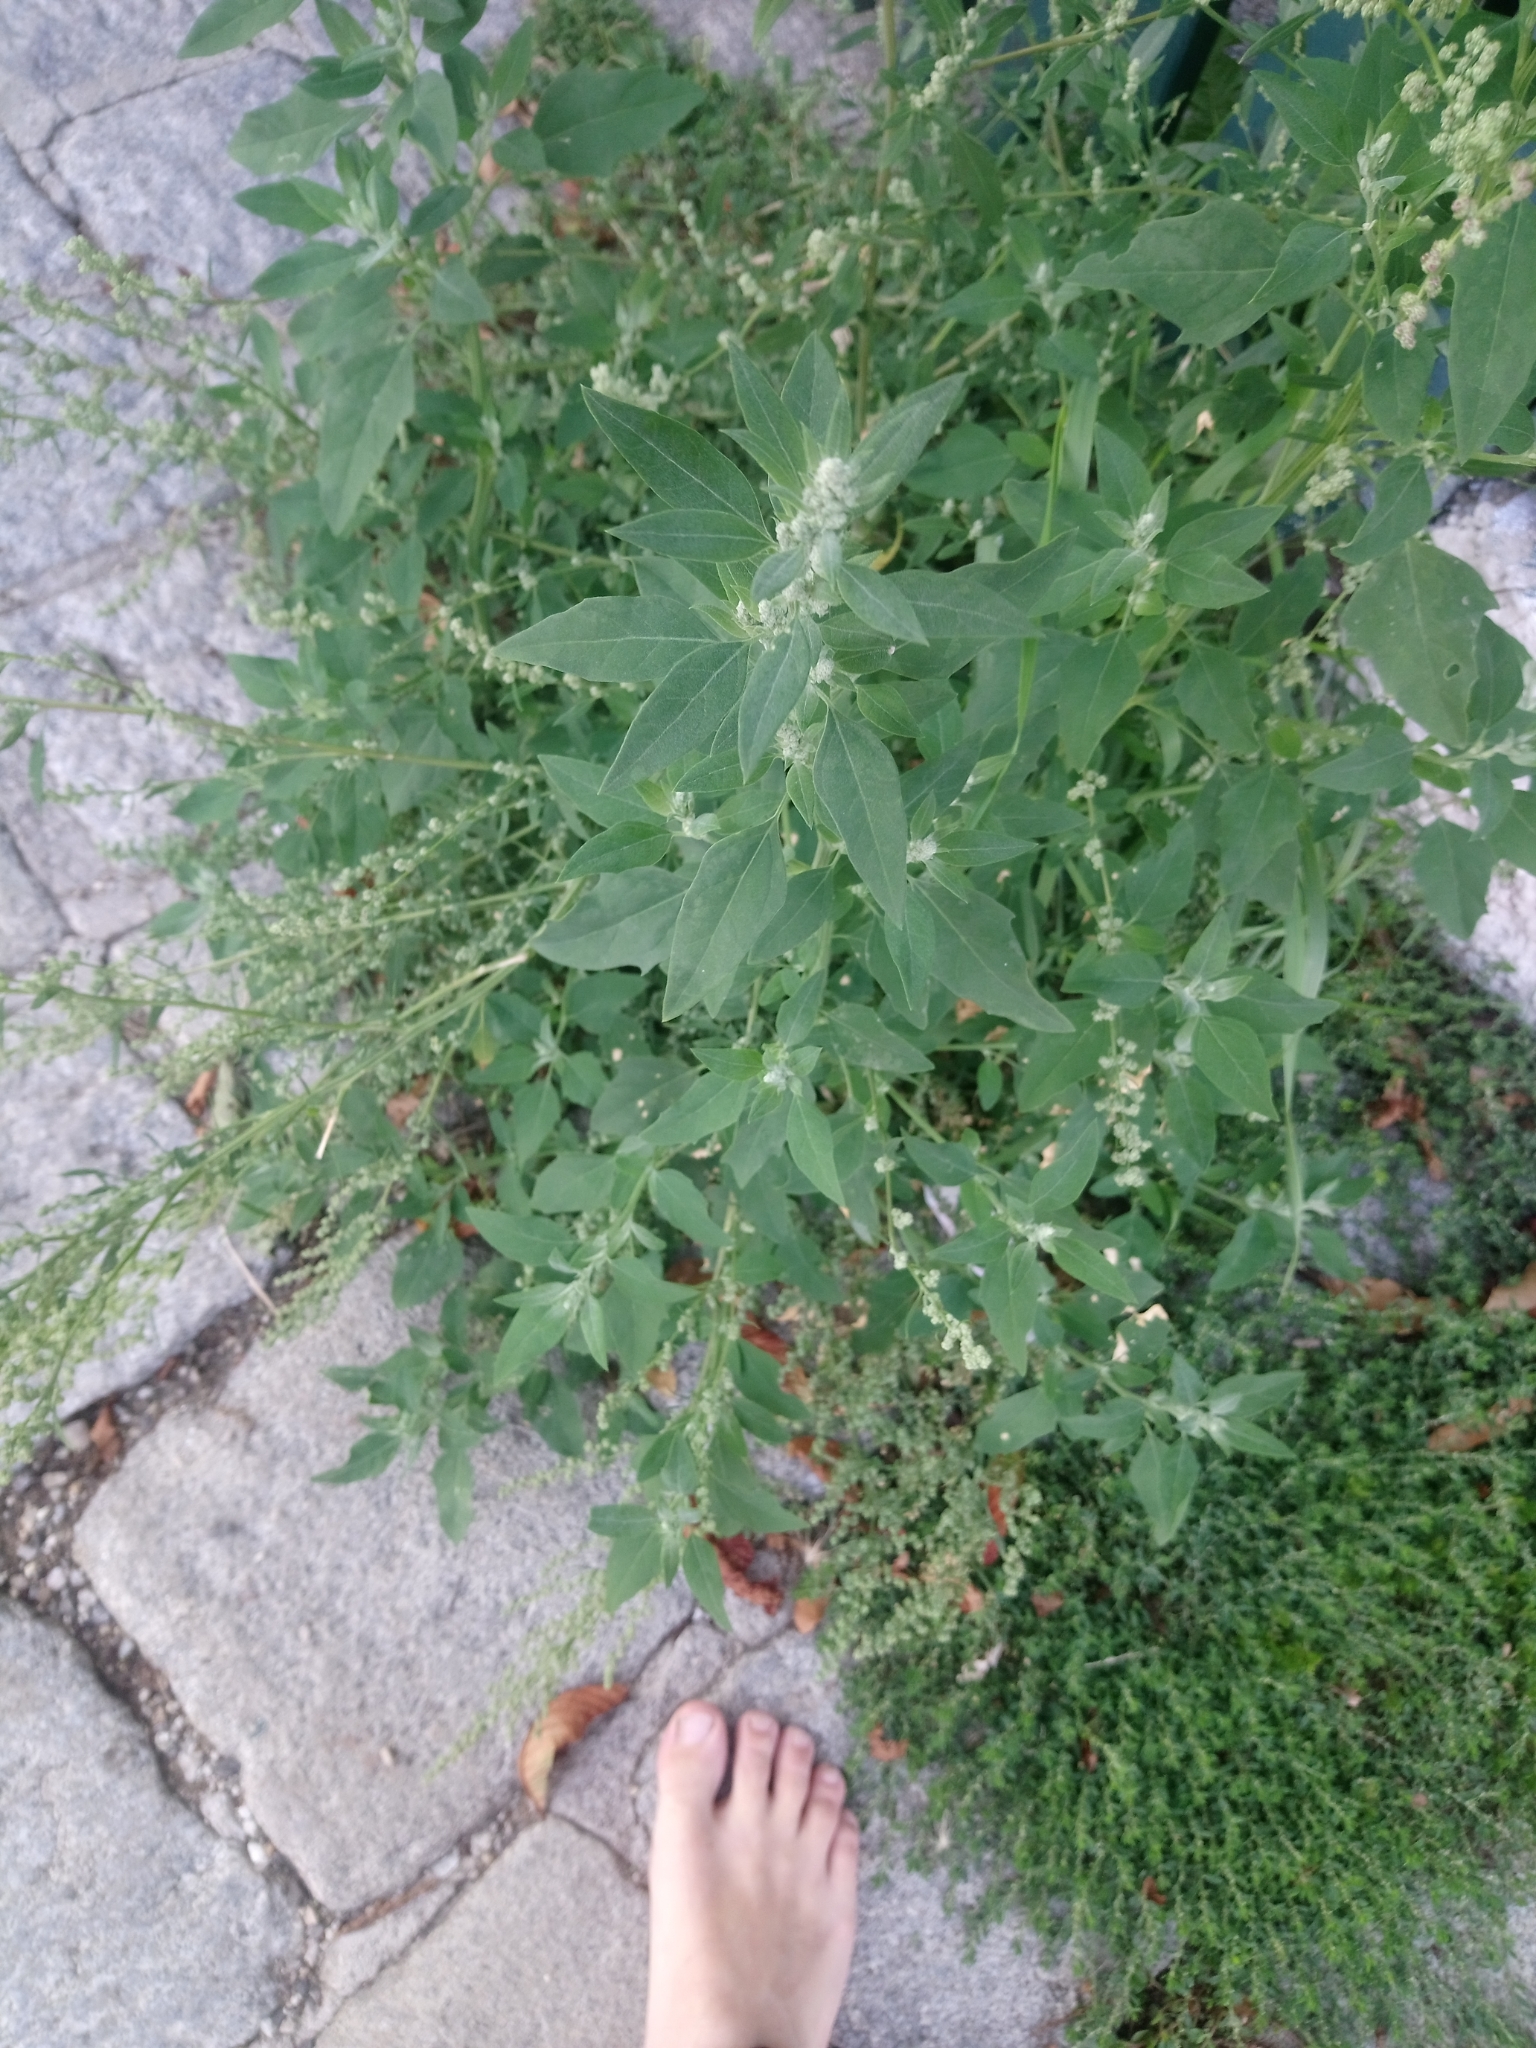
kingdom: Plantae
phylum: Tracheophyta
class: Magnoliopsida
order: Caryophyllales
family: Amaranthaceae
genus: Chenopodium
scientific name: Chenopodium album
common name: Fat-hen
